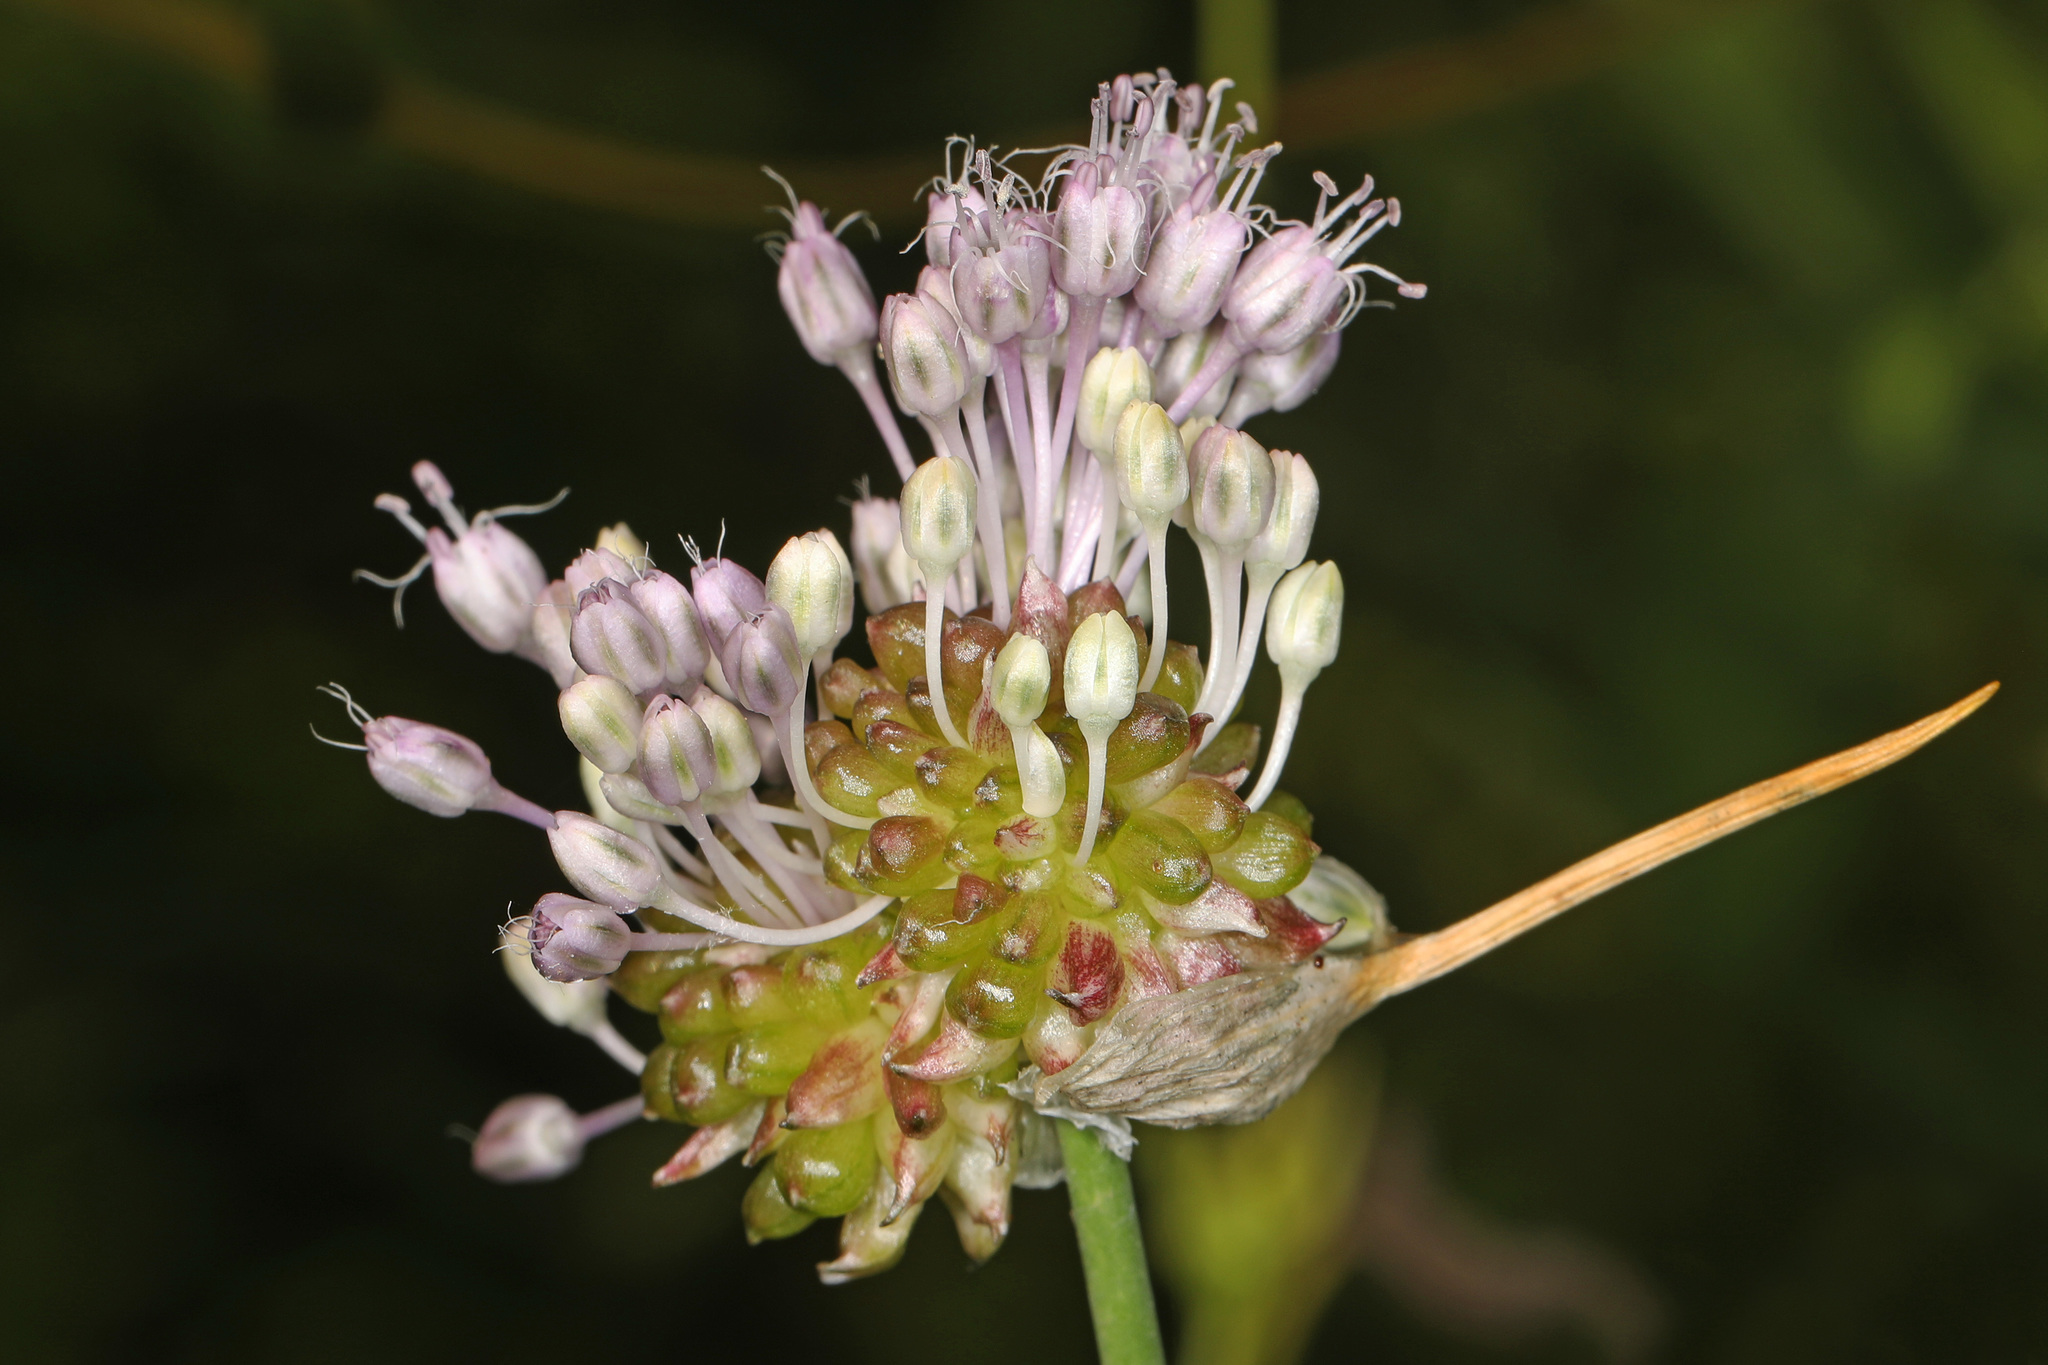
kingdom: Plantae
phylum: Tracheophyta
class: Liliopsida
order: Asparagales
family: Amaryllidaceae
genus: Allium
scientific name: Allium vineale
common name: Crow garlic
